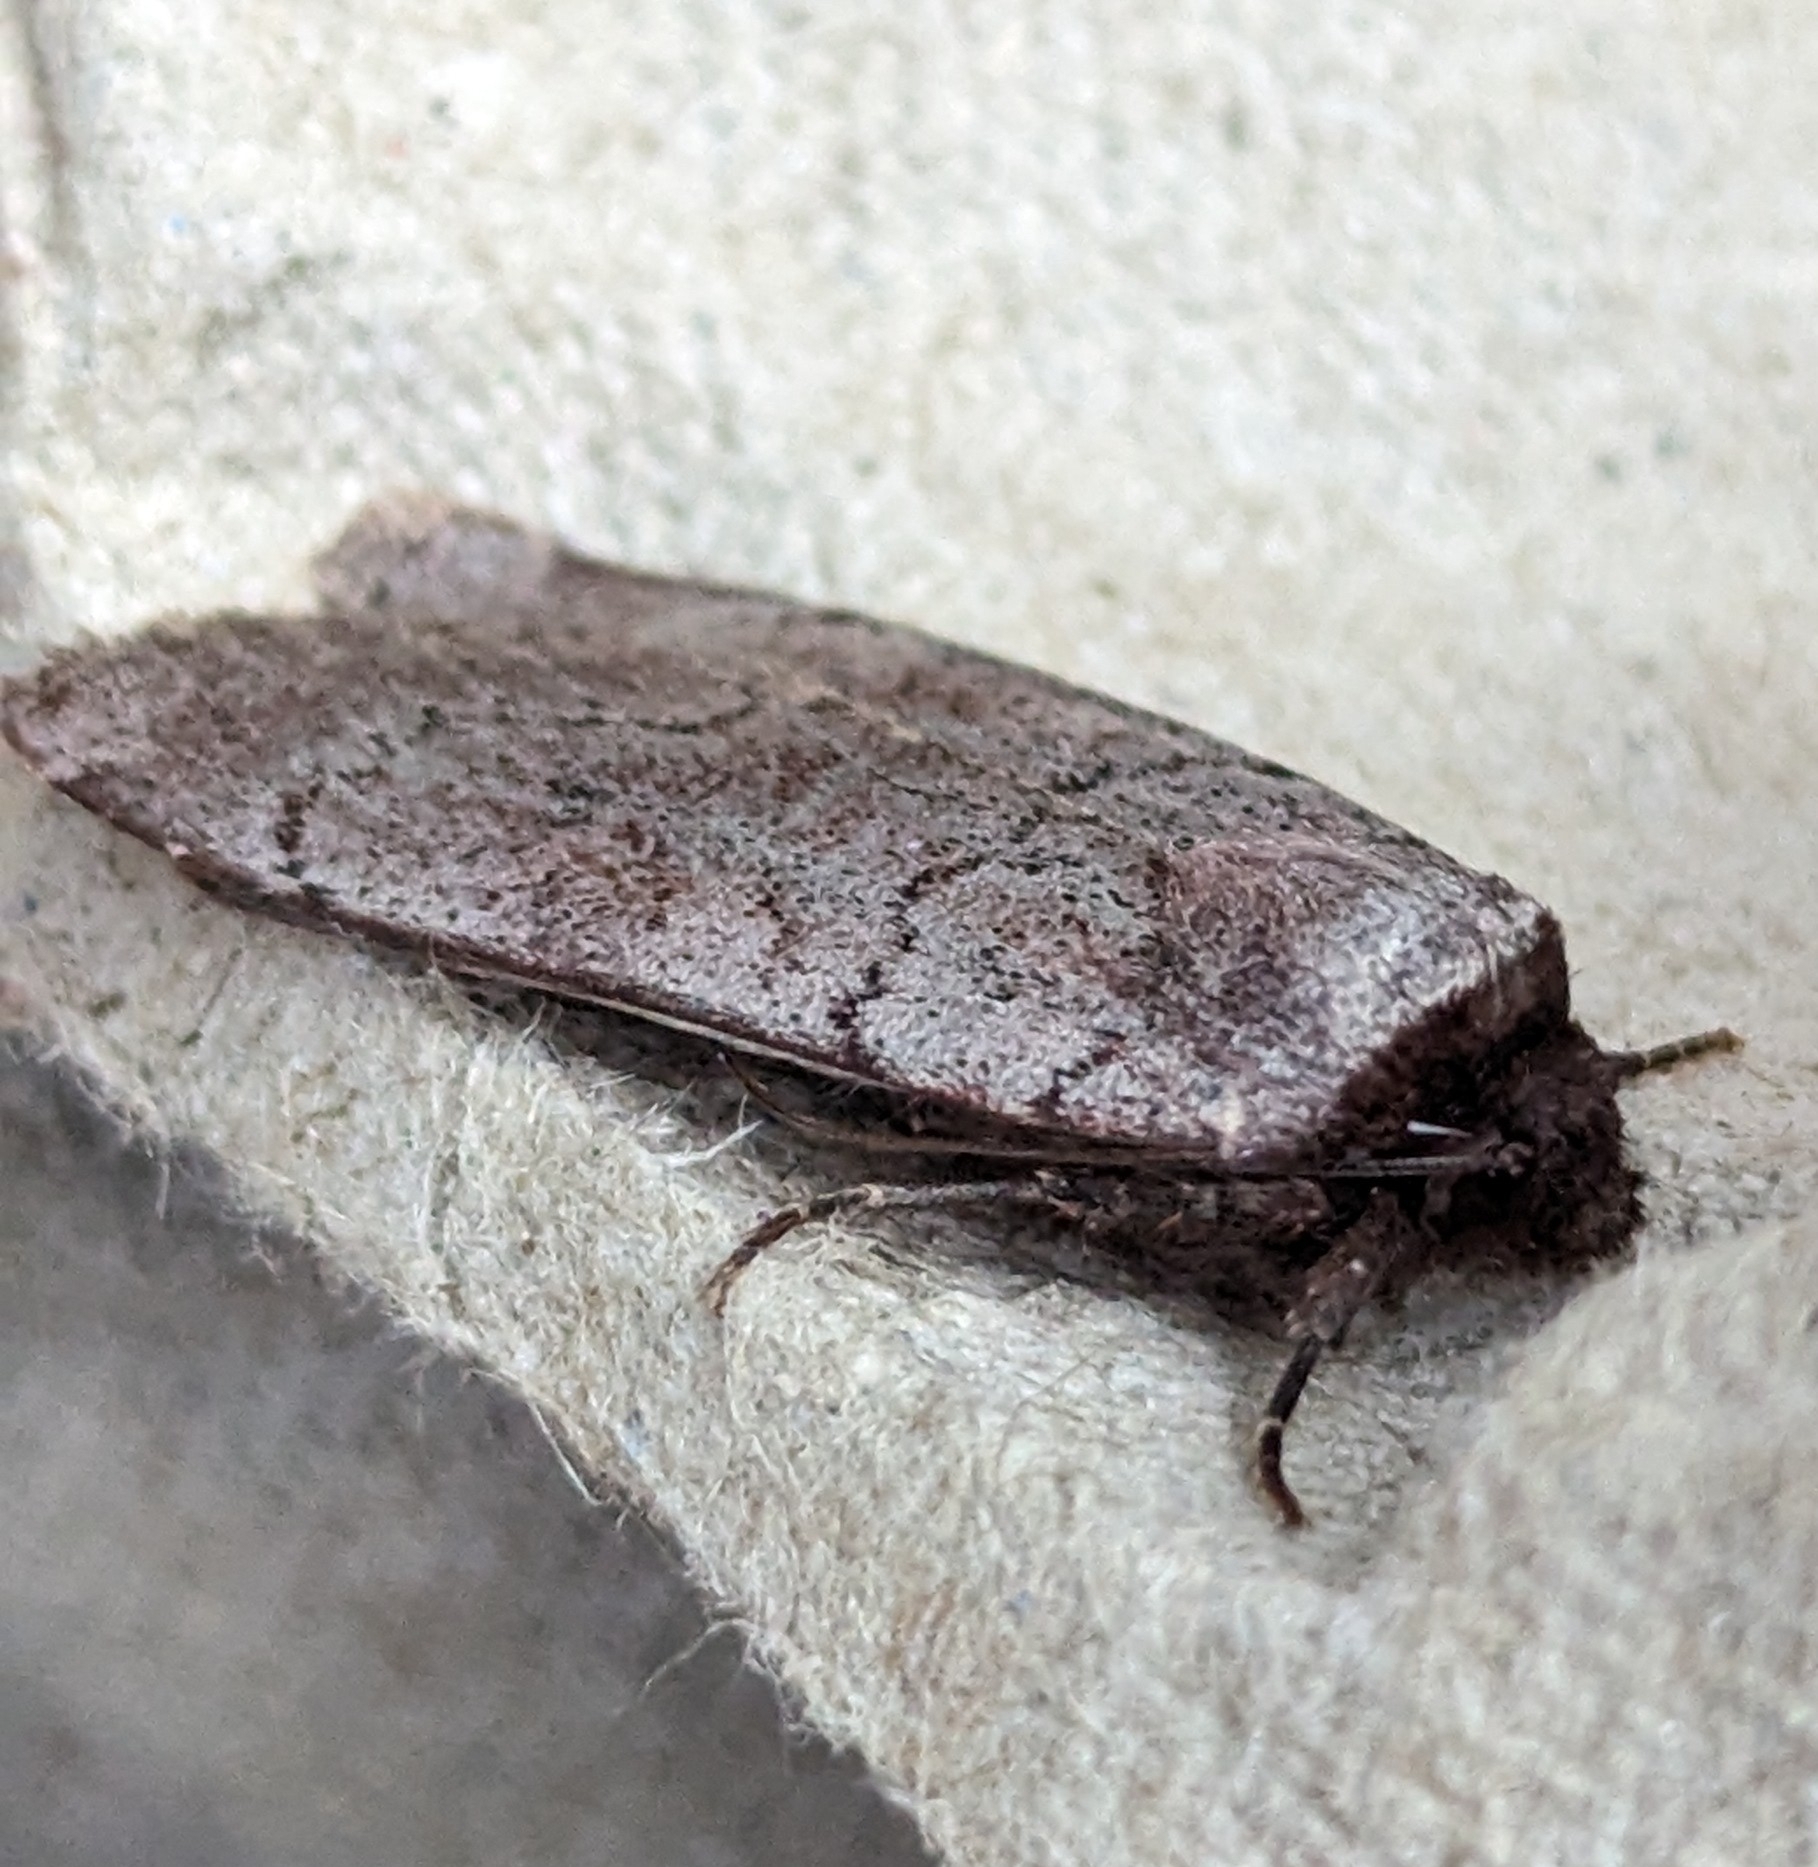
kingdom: Animalia
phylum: Arthropoda
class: Insecta
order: Lepidoptera
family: Noctuidae
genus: Protolampra
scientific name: Protolampra rufipectus
